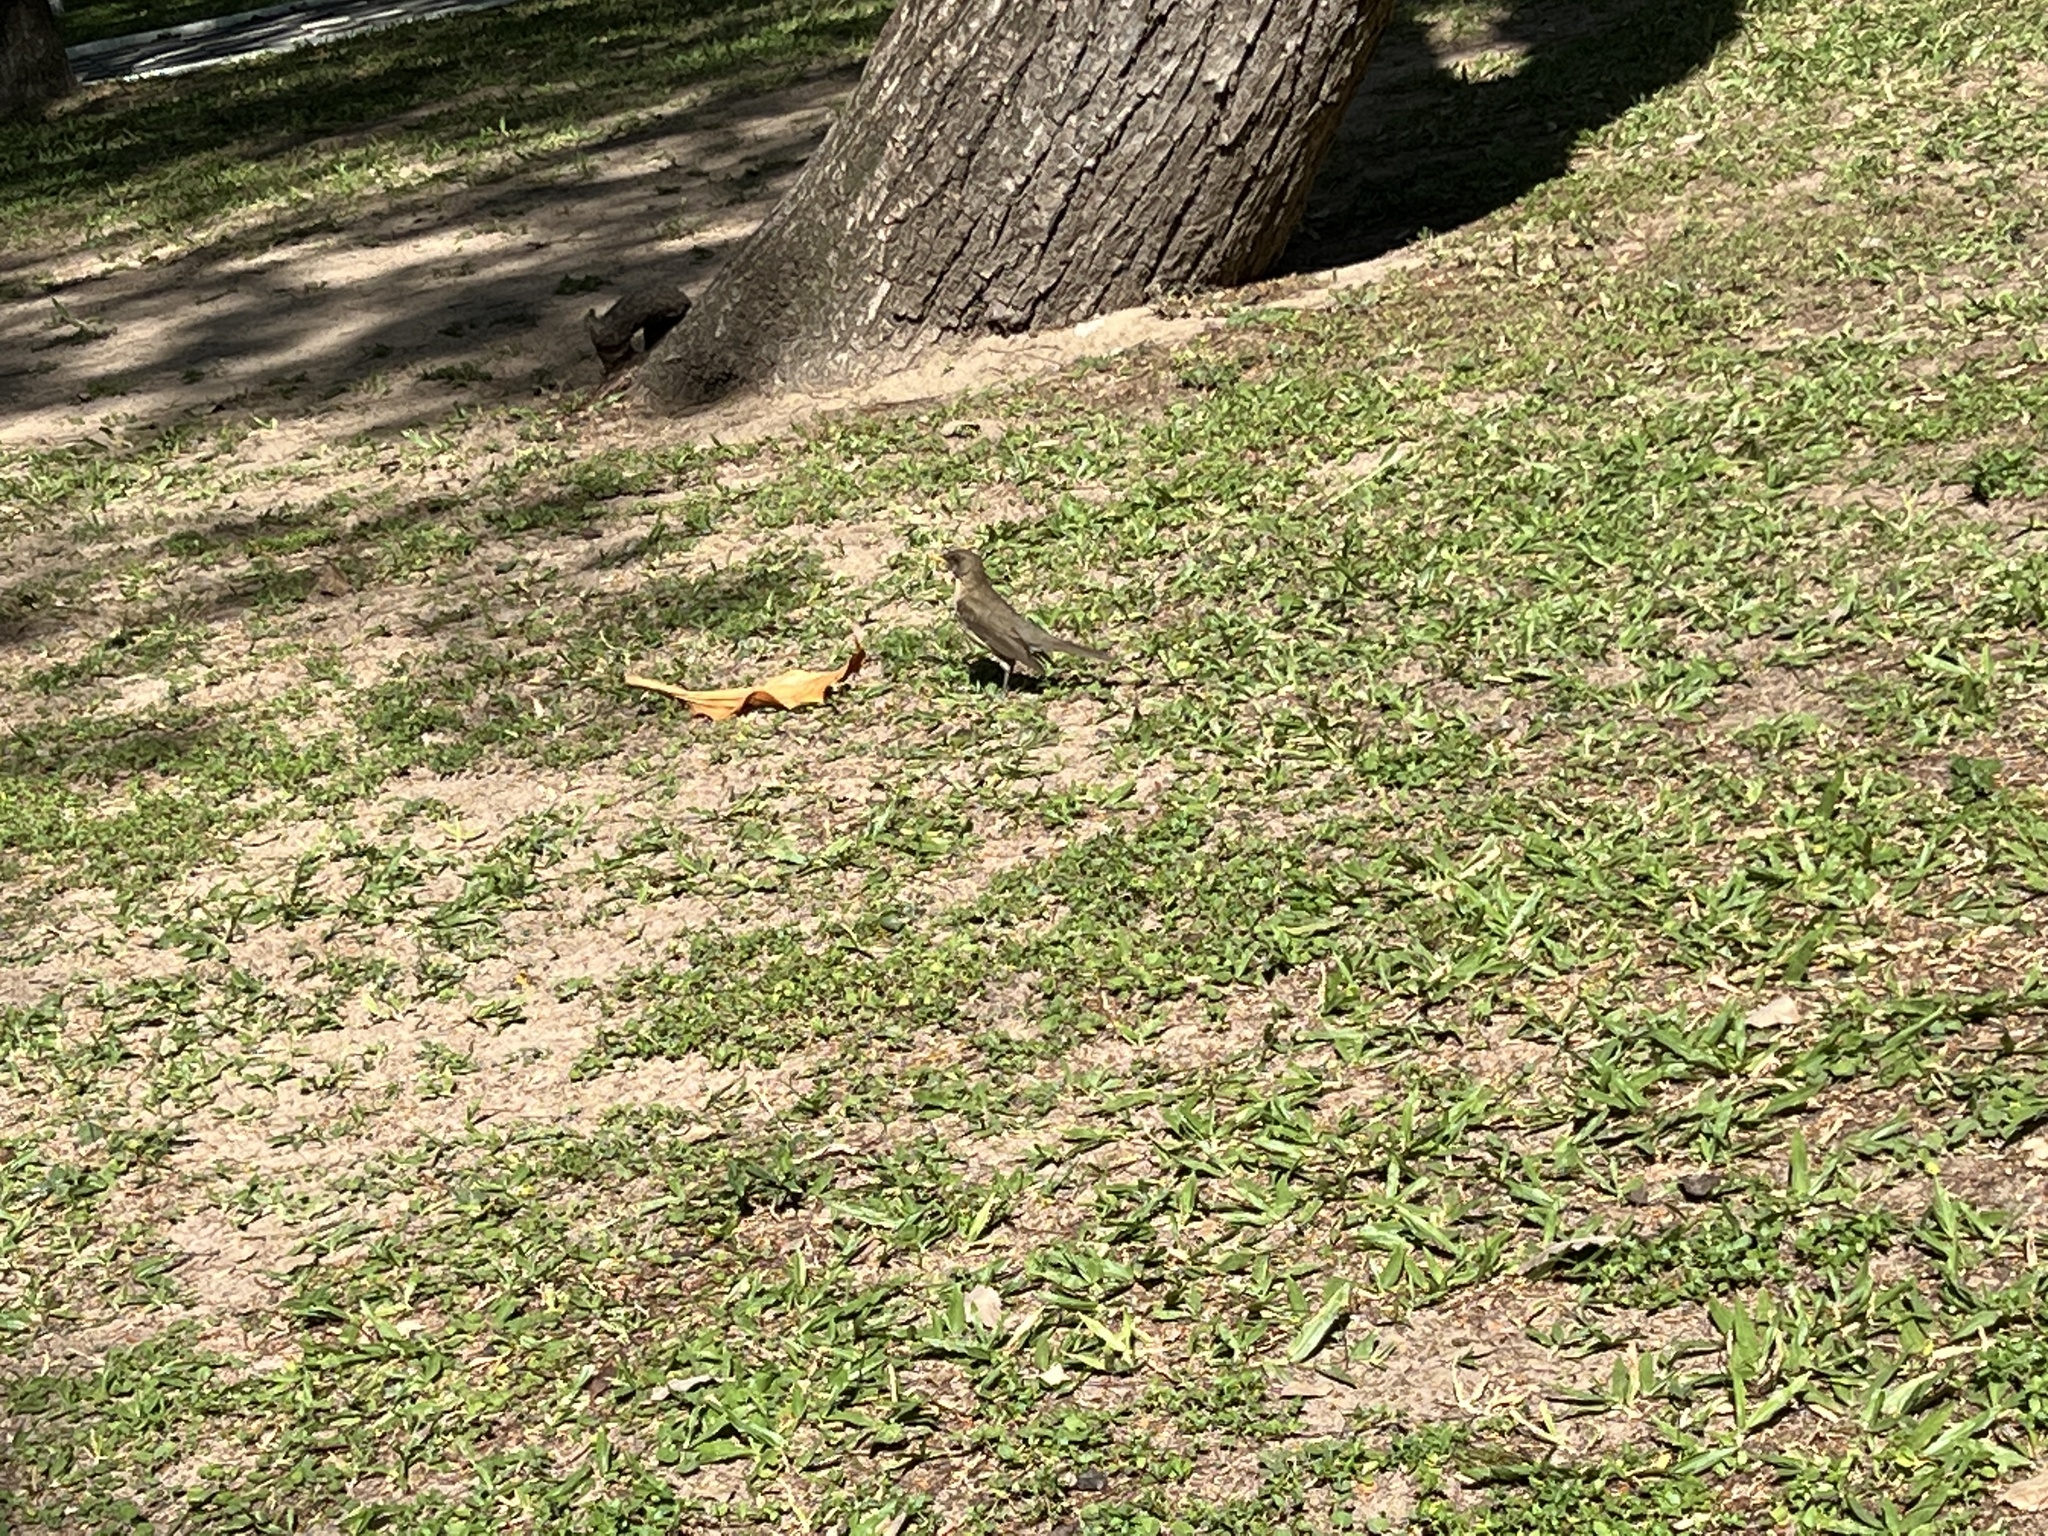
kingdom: Animalia
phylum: Chordata
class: Aves
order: Passeriformes
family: Turdidae
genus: Turdus
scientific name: Turdus amaurochalinus
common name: Creamy-bellied thrush
